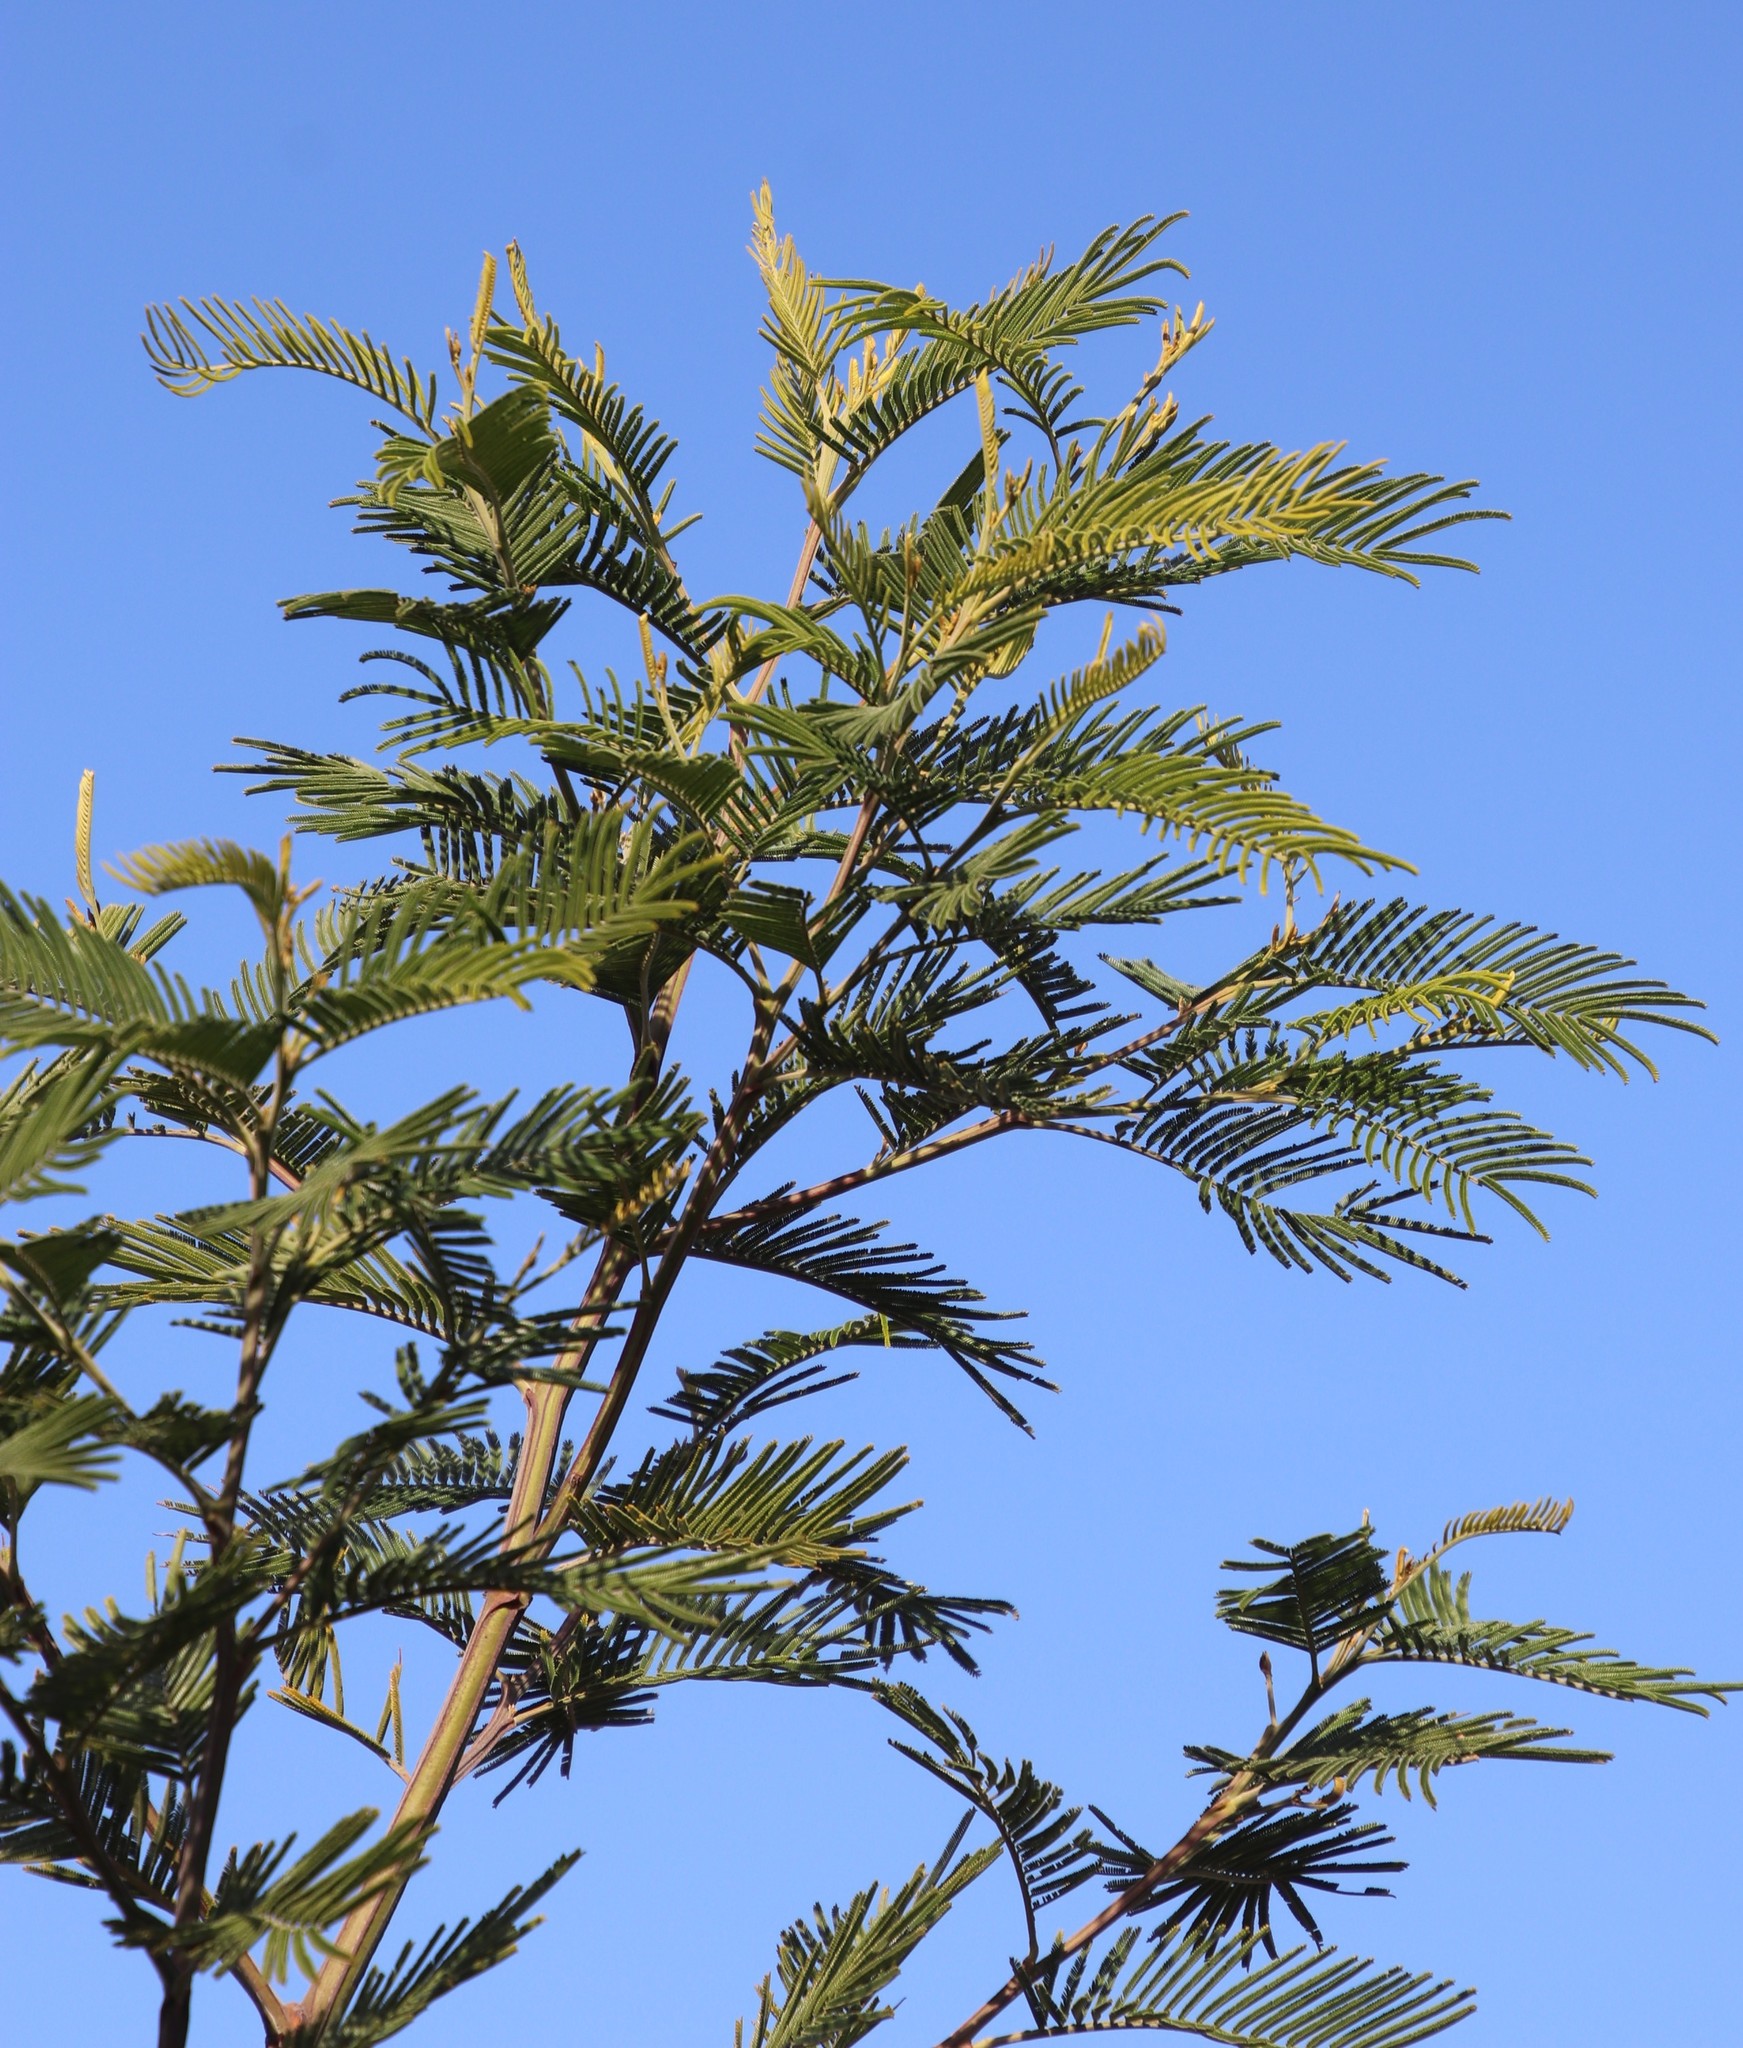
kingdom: Plantae
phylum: Tracheophyta
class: Magnoliopsida
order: Fabales
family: Fabaceae
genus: Acacia
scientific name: Acacia mearnsii
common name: Black wattle
